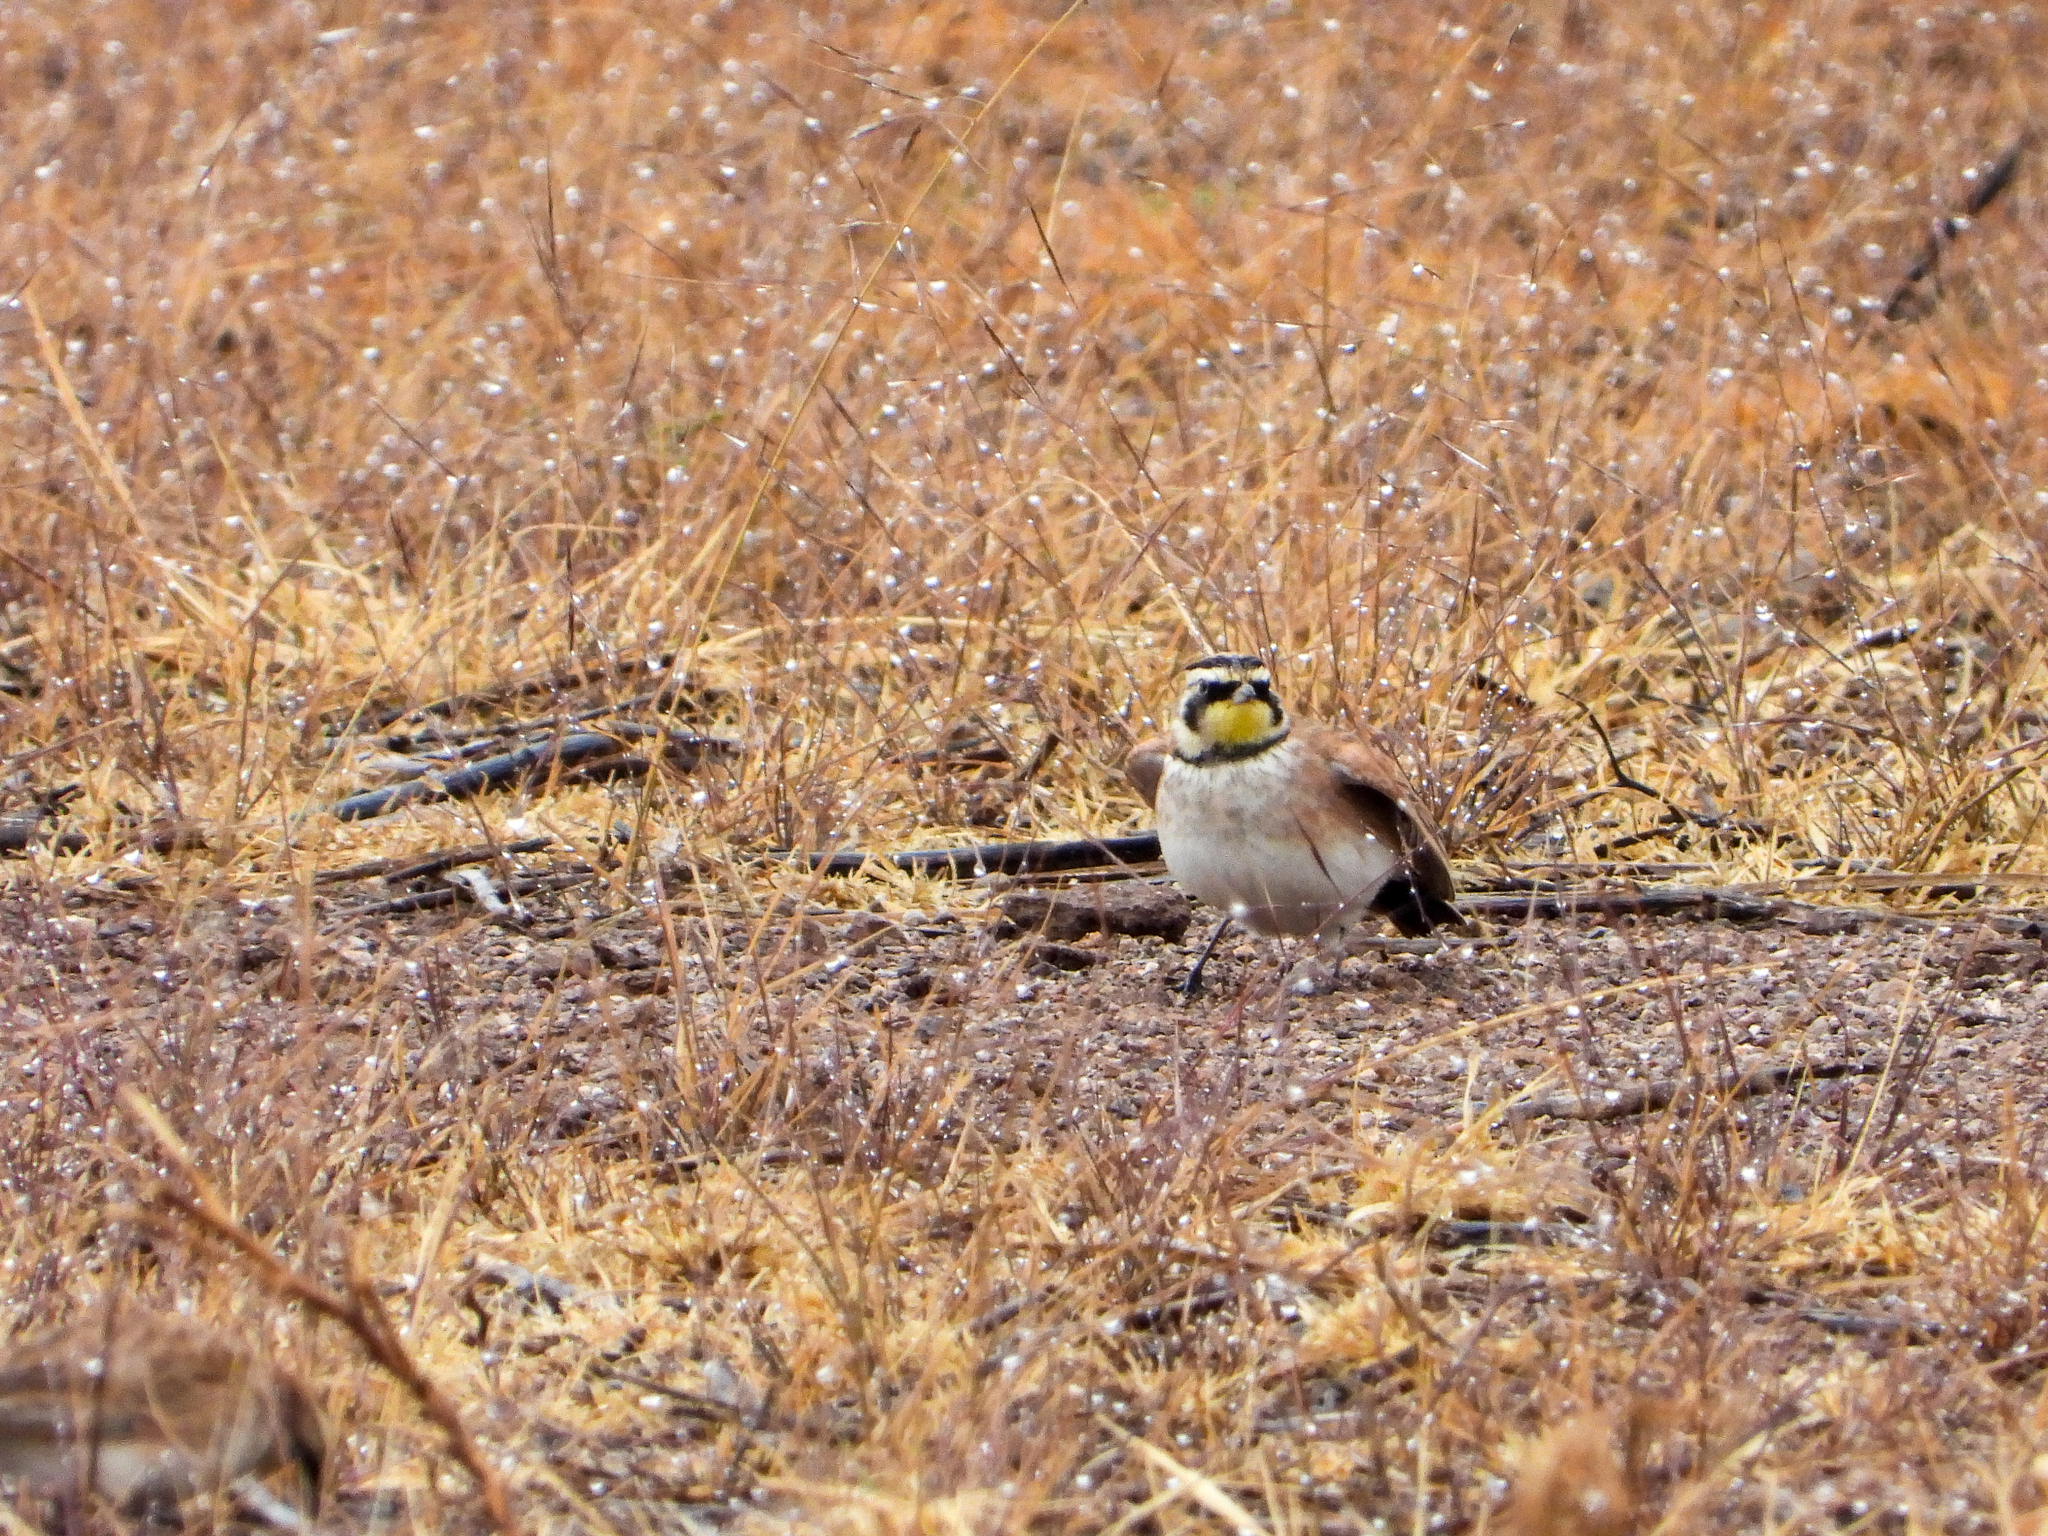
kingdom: Animalia
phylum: Chordata
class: Aves
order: Passeriformes
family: Alaudidae
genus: Eremophila
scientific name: Eremophila alpestris
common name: Horned lark
